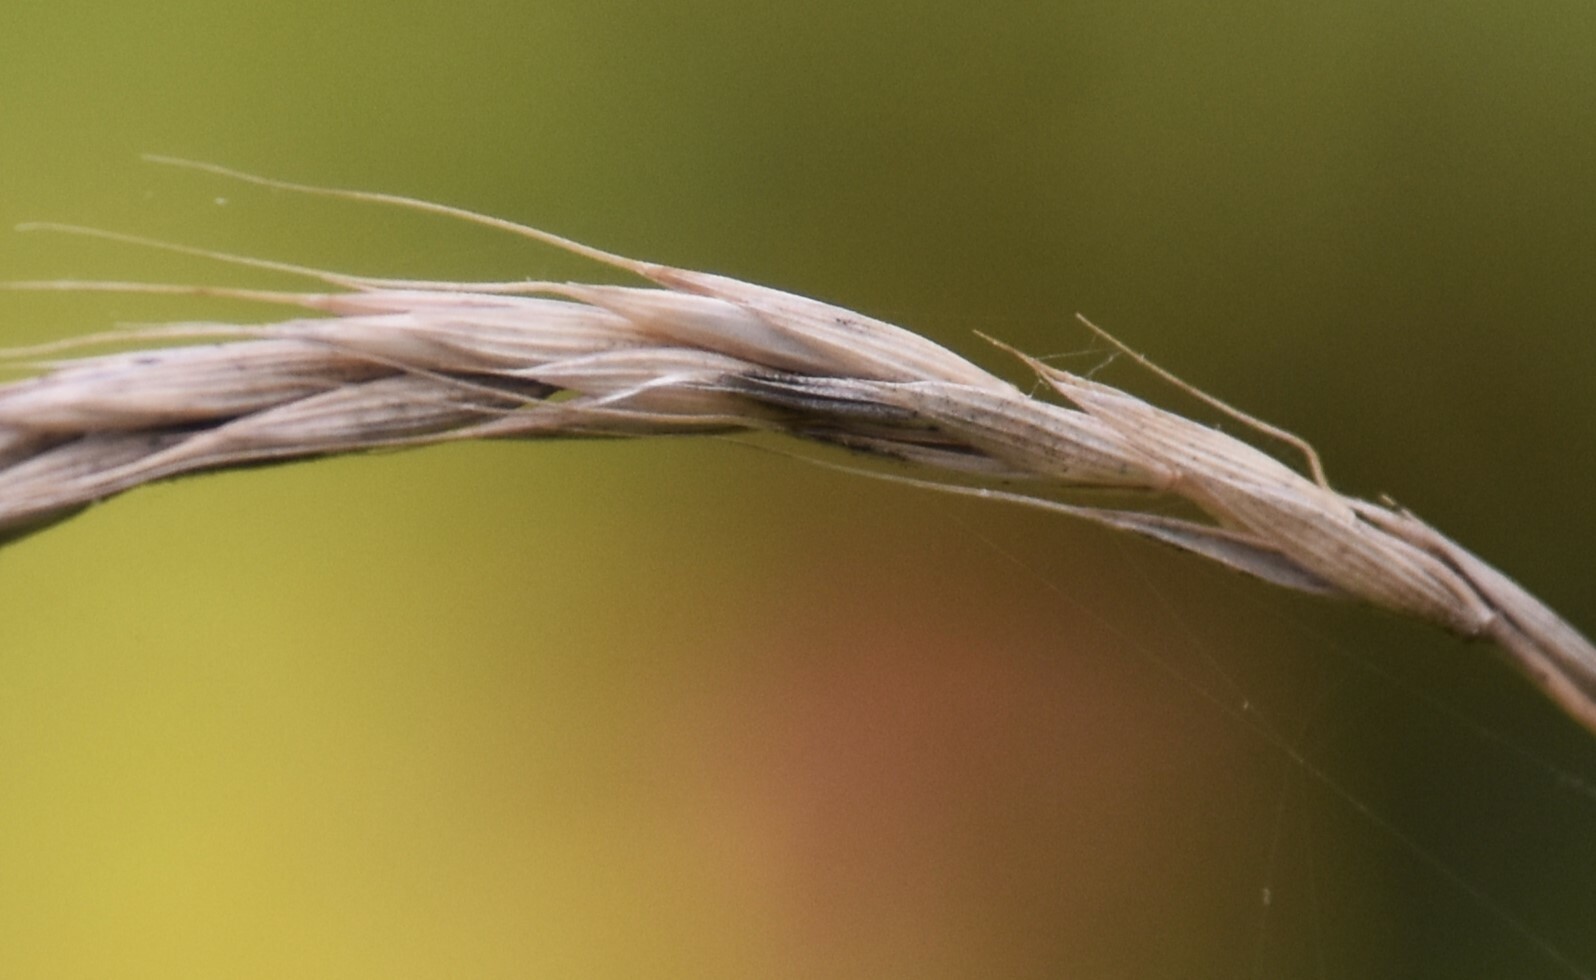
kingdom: Plantae
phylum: Tracheophyta
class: Liliopsida
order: Poales
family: Poaceae
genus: Elymus
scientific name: Elymus violaceus
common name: Arctic wheatgrass
